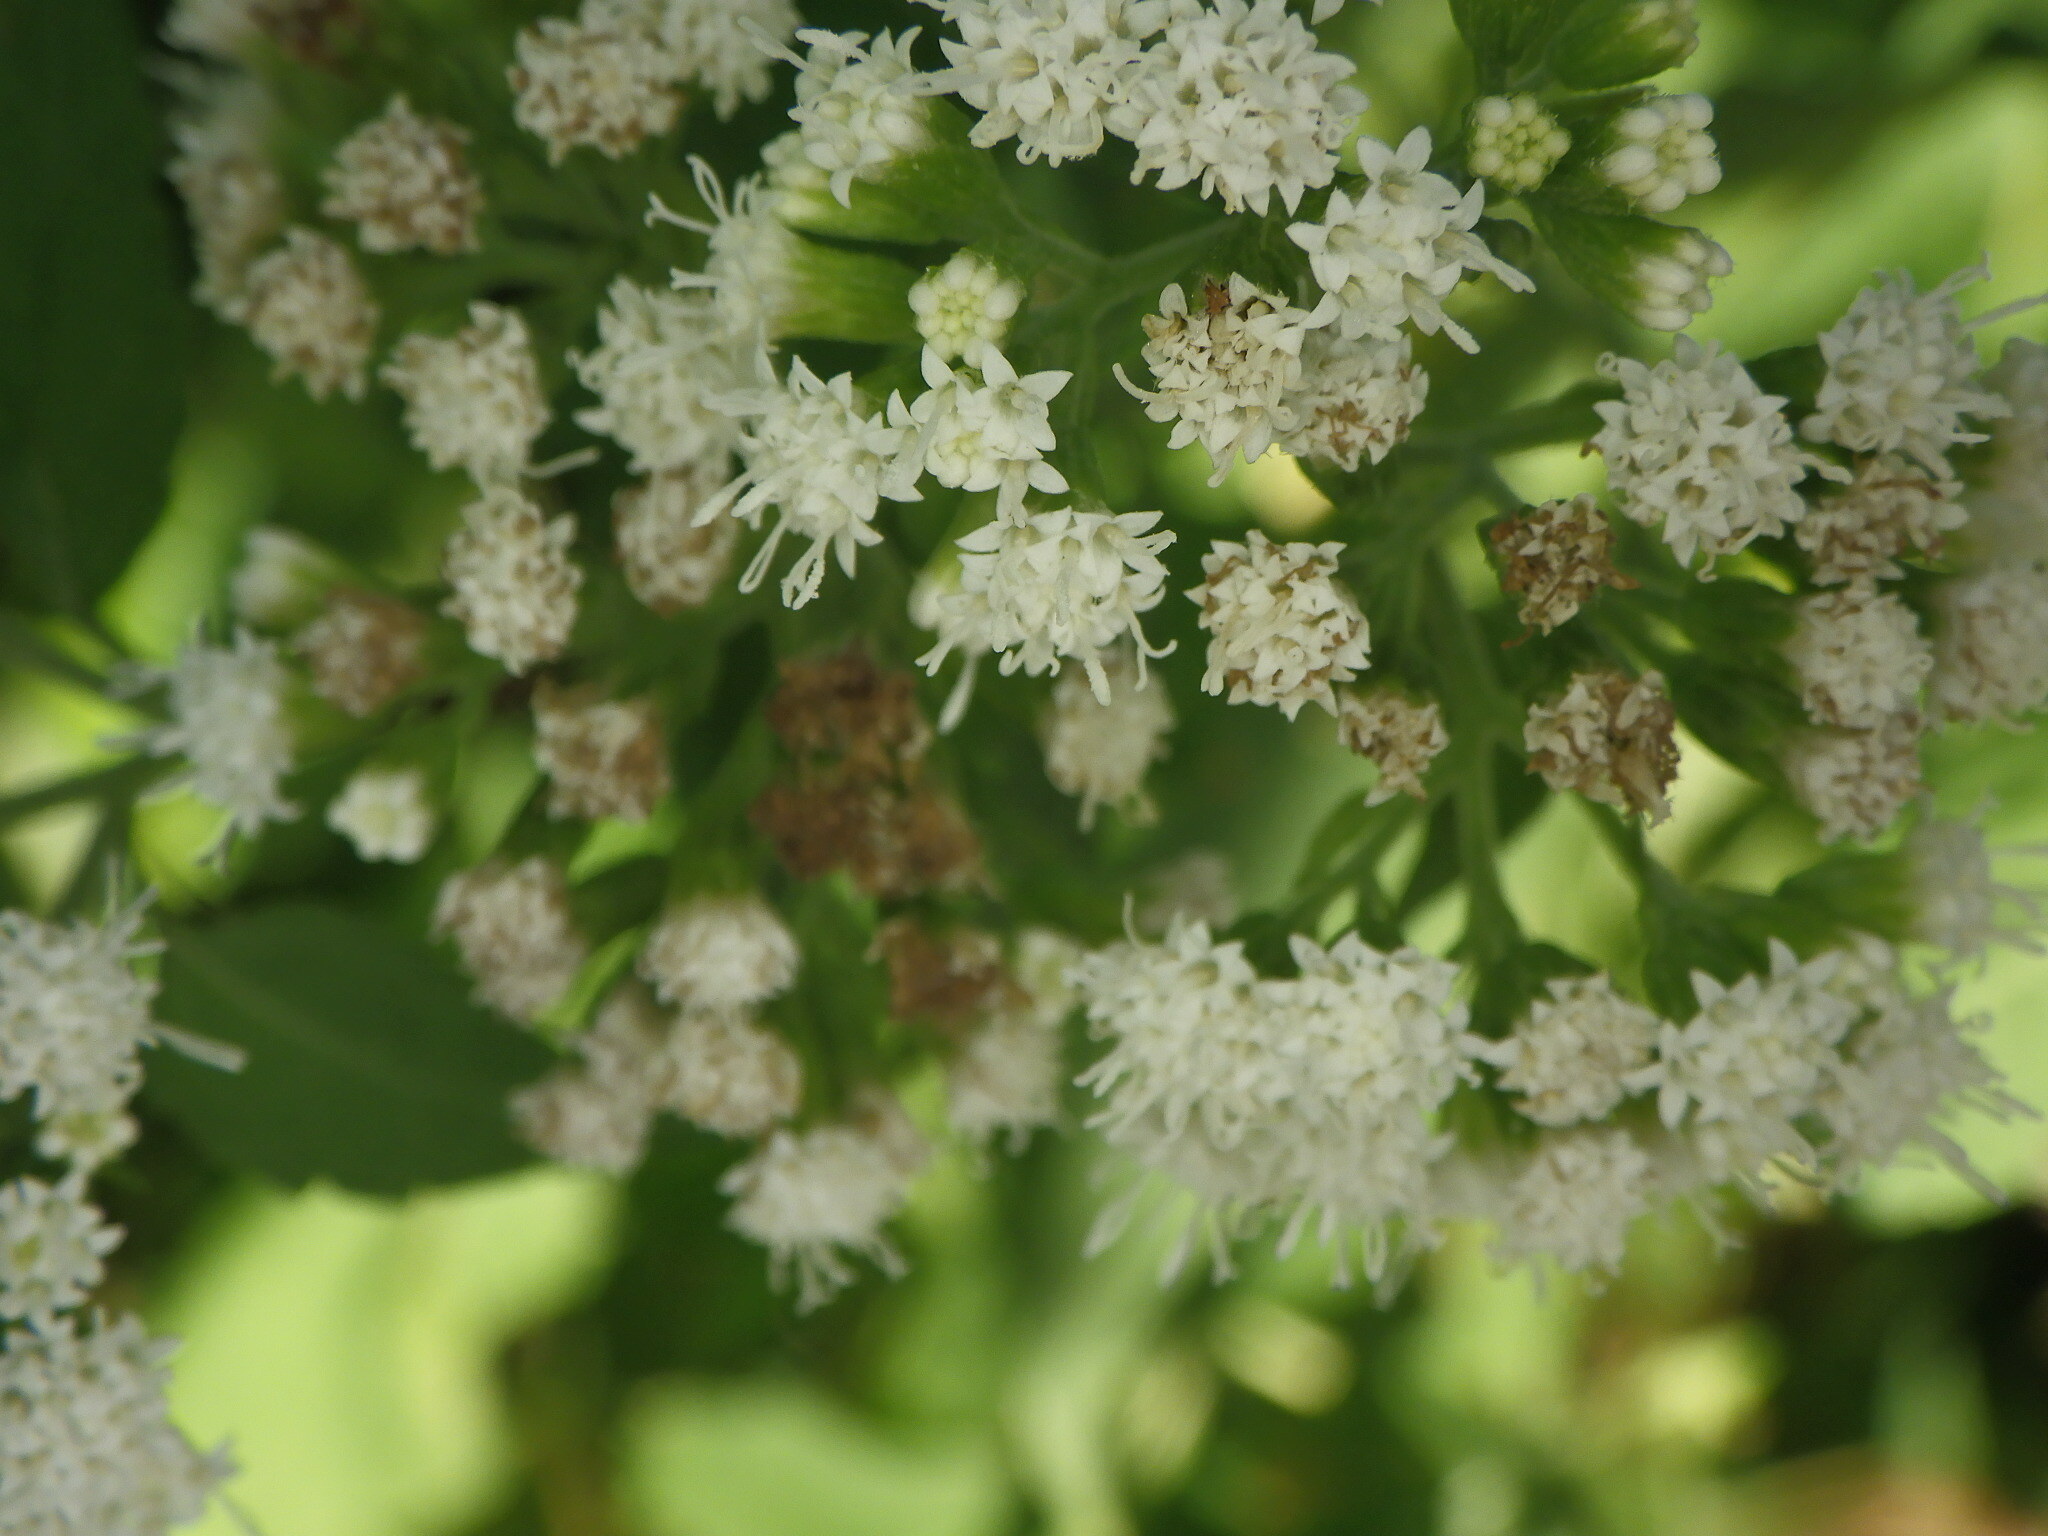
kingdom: Plantae
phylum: Tracheophyta
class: Magnoliopsida
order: Asterales
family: Asteraceae
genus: Ageratina
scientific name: Ageratina altissima
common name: White snakeroot
